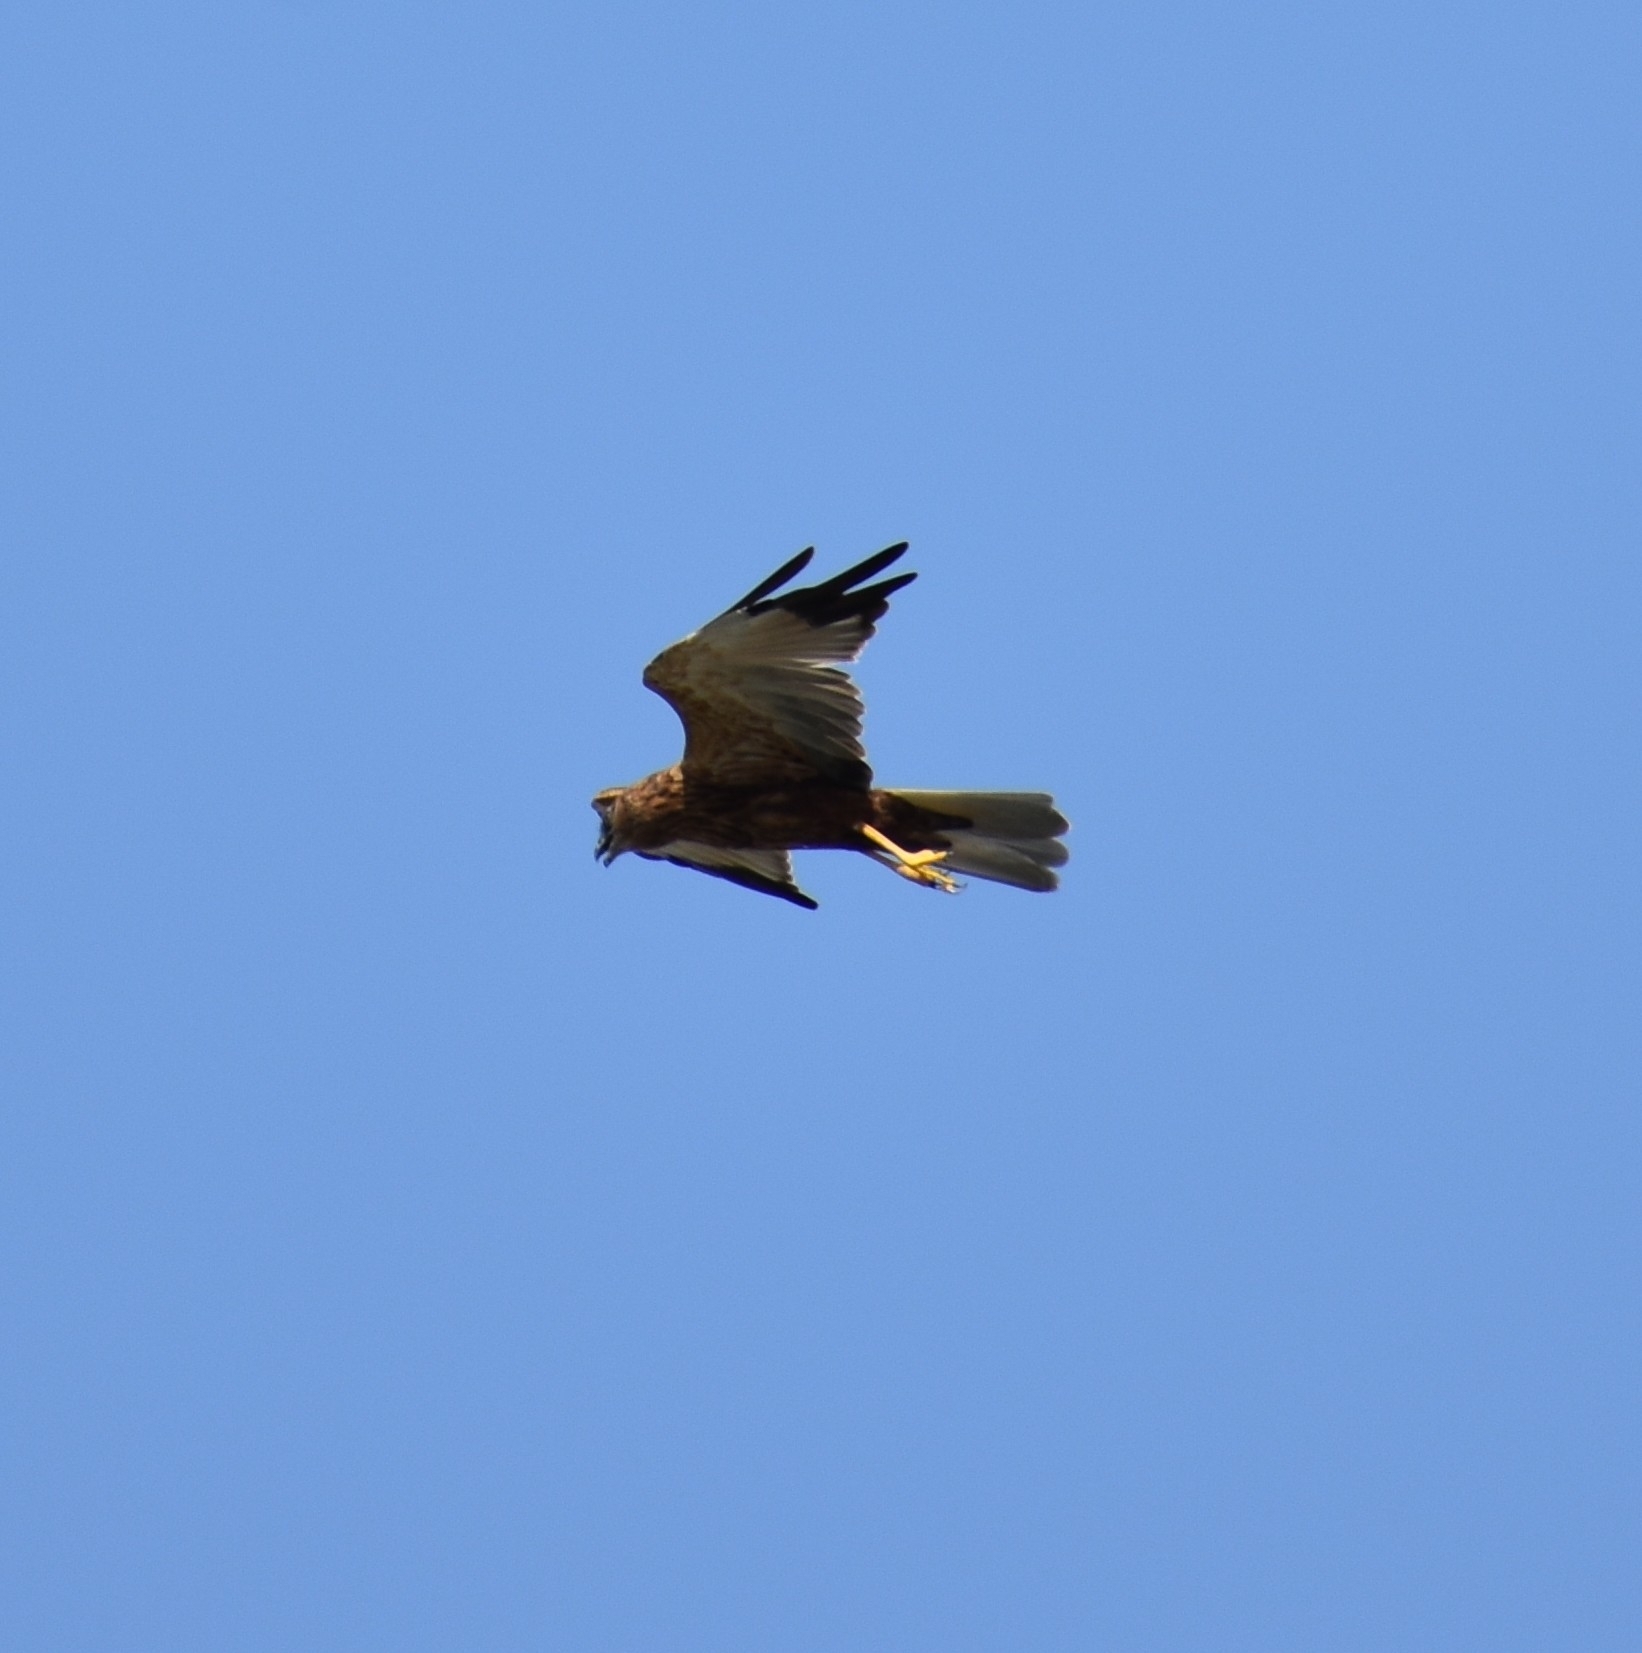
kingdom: Animalia
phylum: Chordata
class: Aves
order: Accipitriformes
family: Accipitridae
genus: Circus
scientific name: Circus aeruginosus
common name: Western marsh harrier
